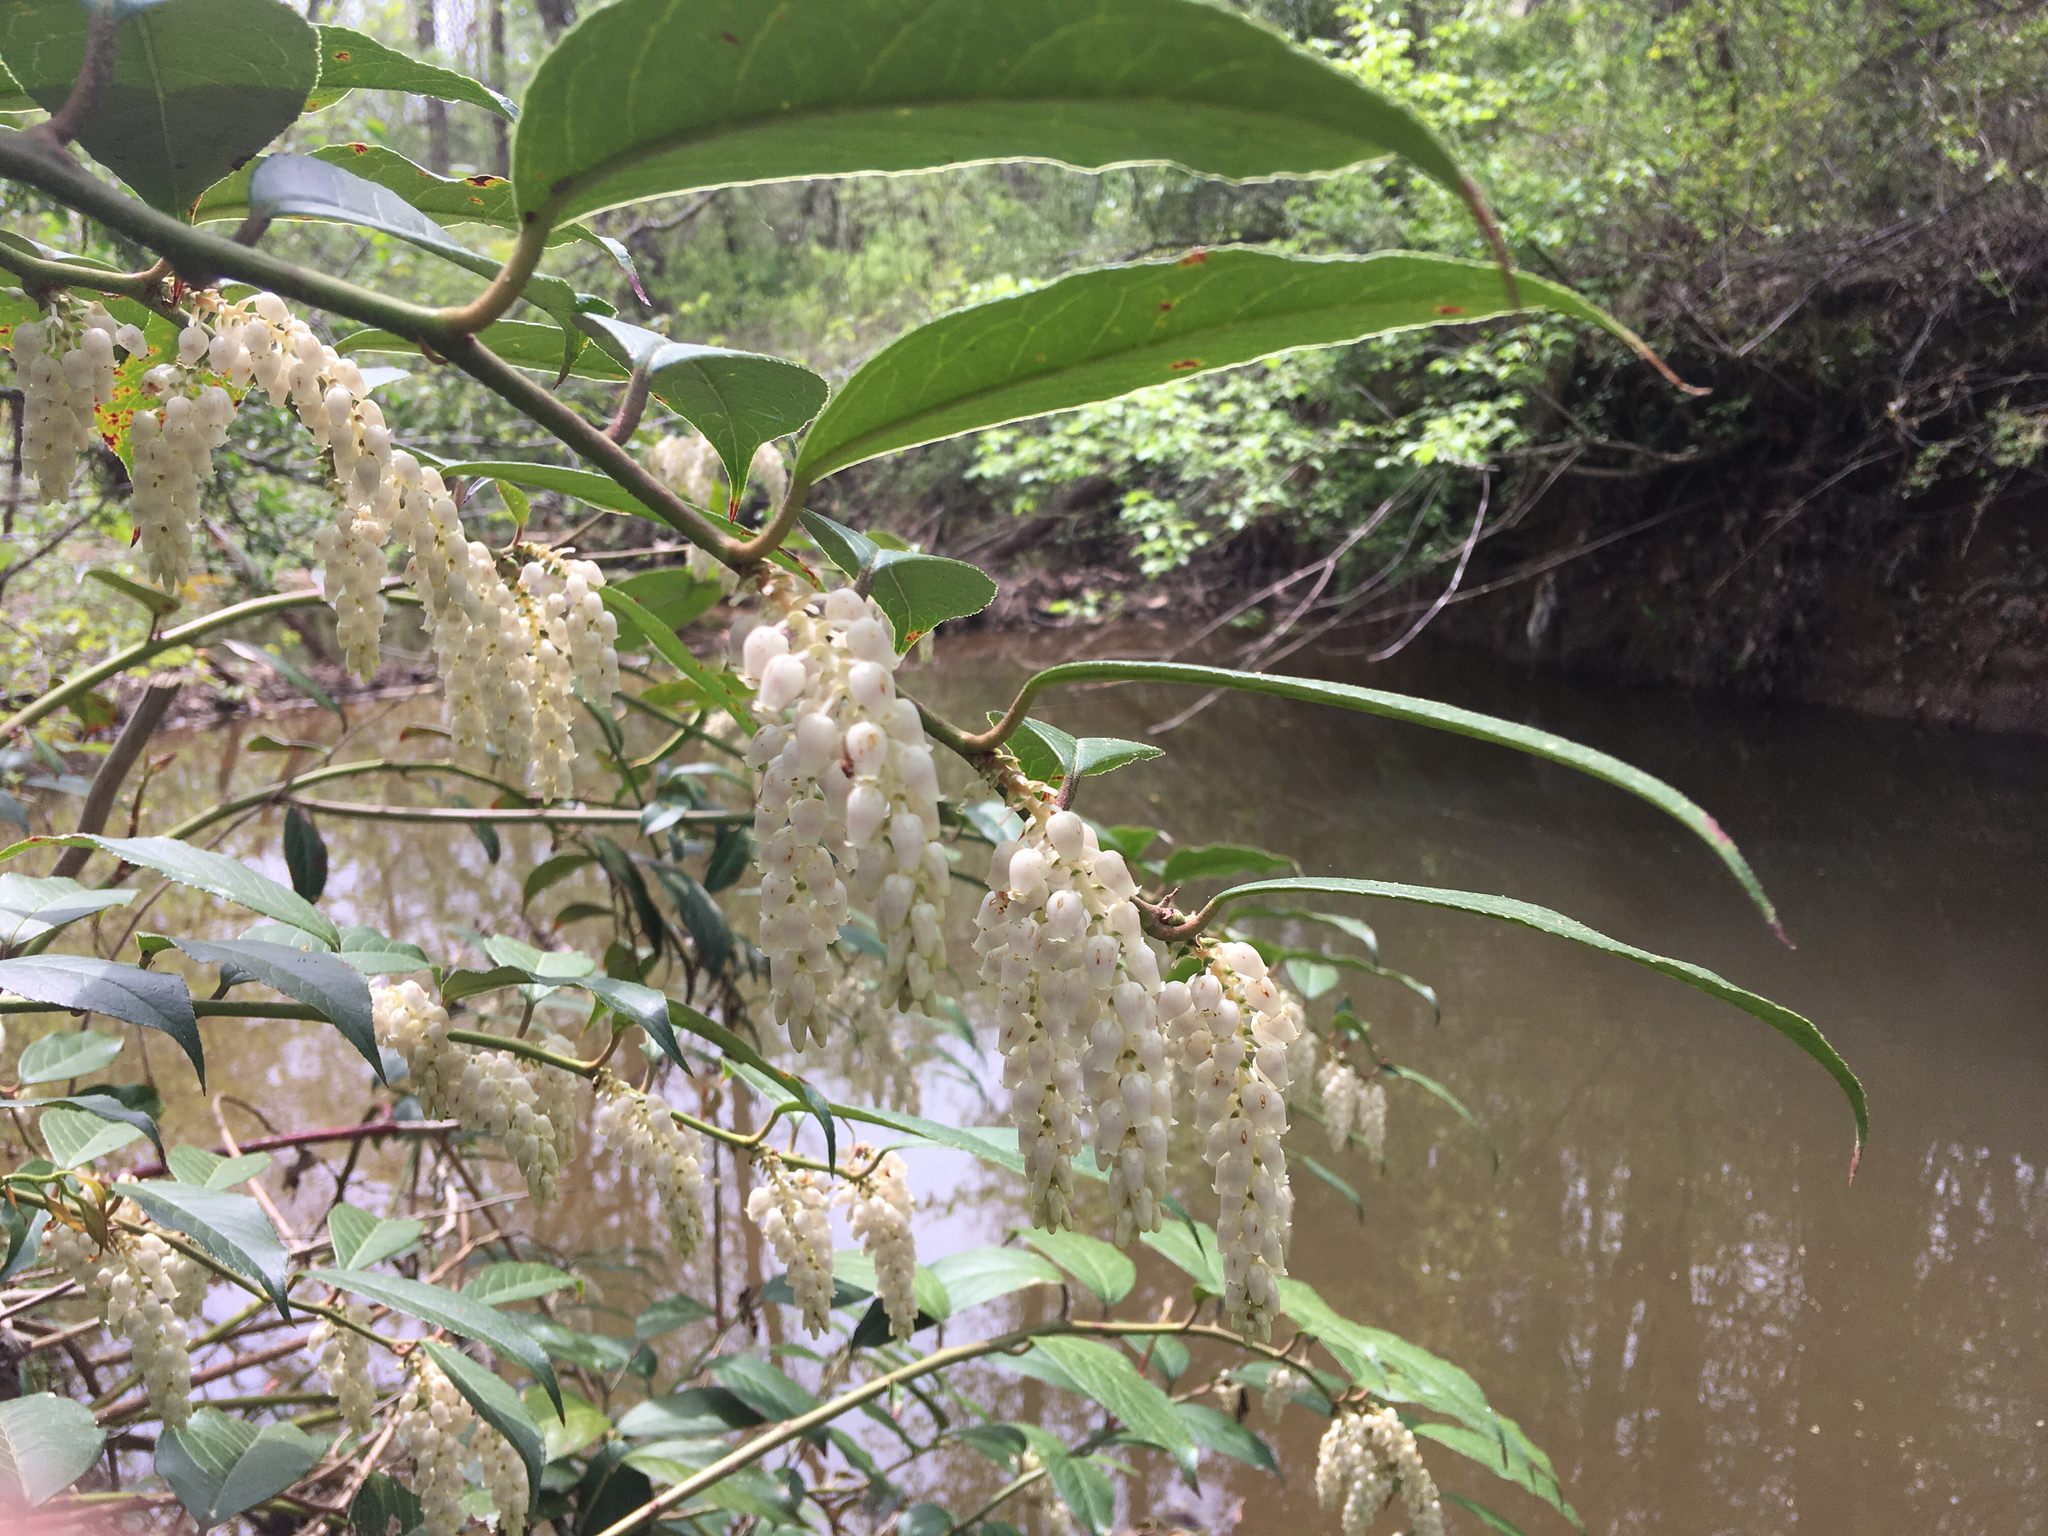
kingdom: Plantae
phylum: Tracheophyta
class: Magnoliopsida
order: Ericales
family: Ericaceae
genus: Leucothoe
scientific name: Leucothoe fontanesiana
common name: Fetterbush
